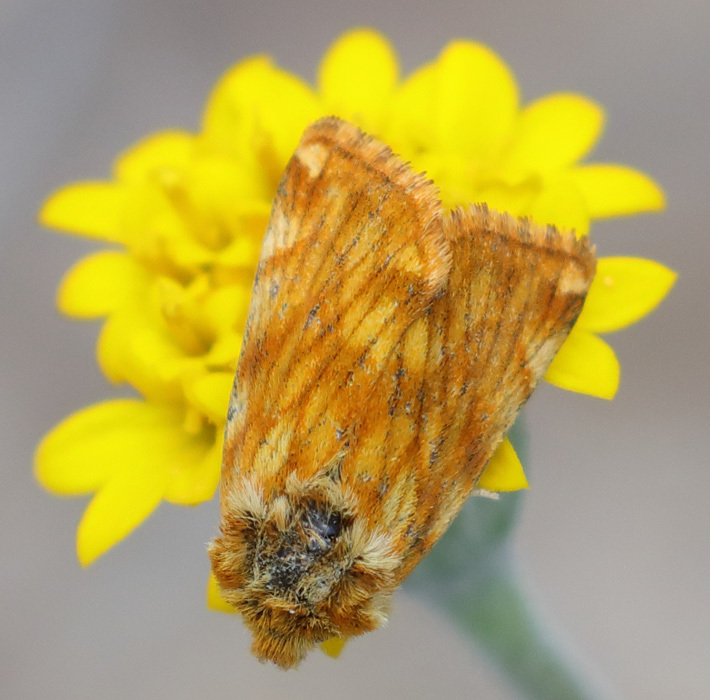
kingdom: Animalia
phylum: Arthropoda
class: Insecta
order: Lepidoptera
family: Noctuidae
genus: Xanthothrix
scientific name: Xanthothrix neumoegeni
